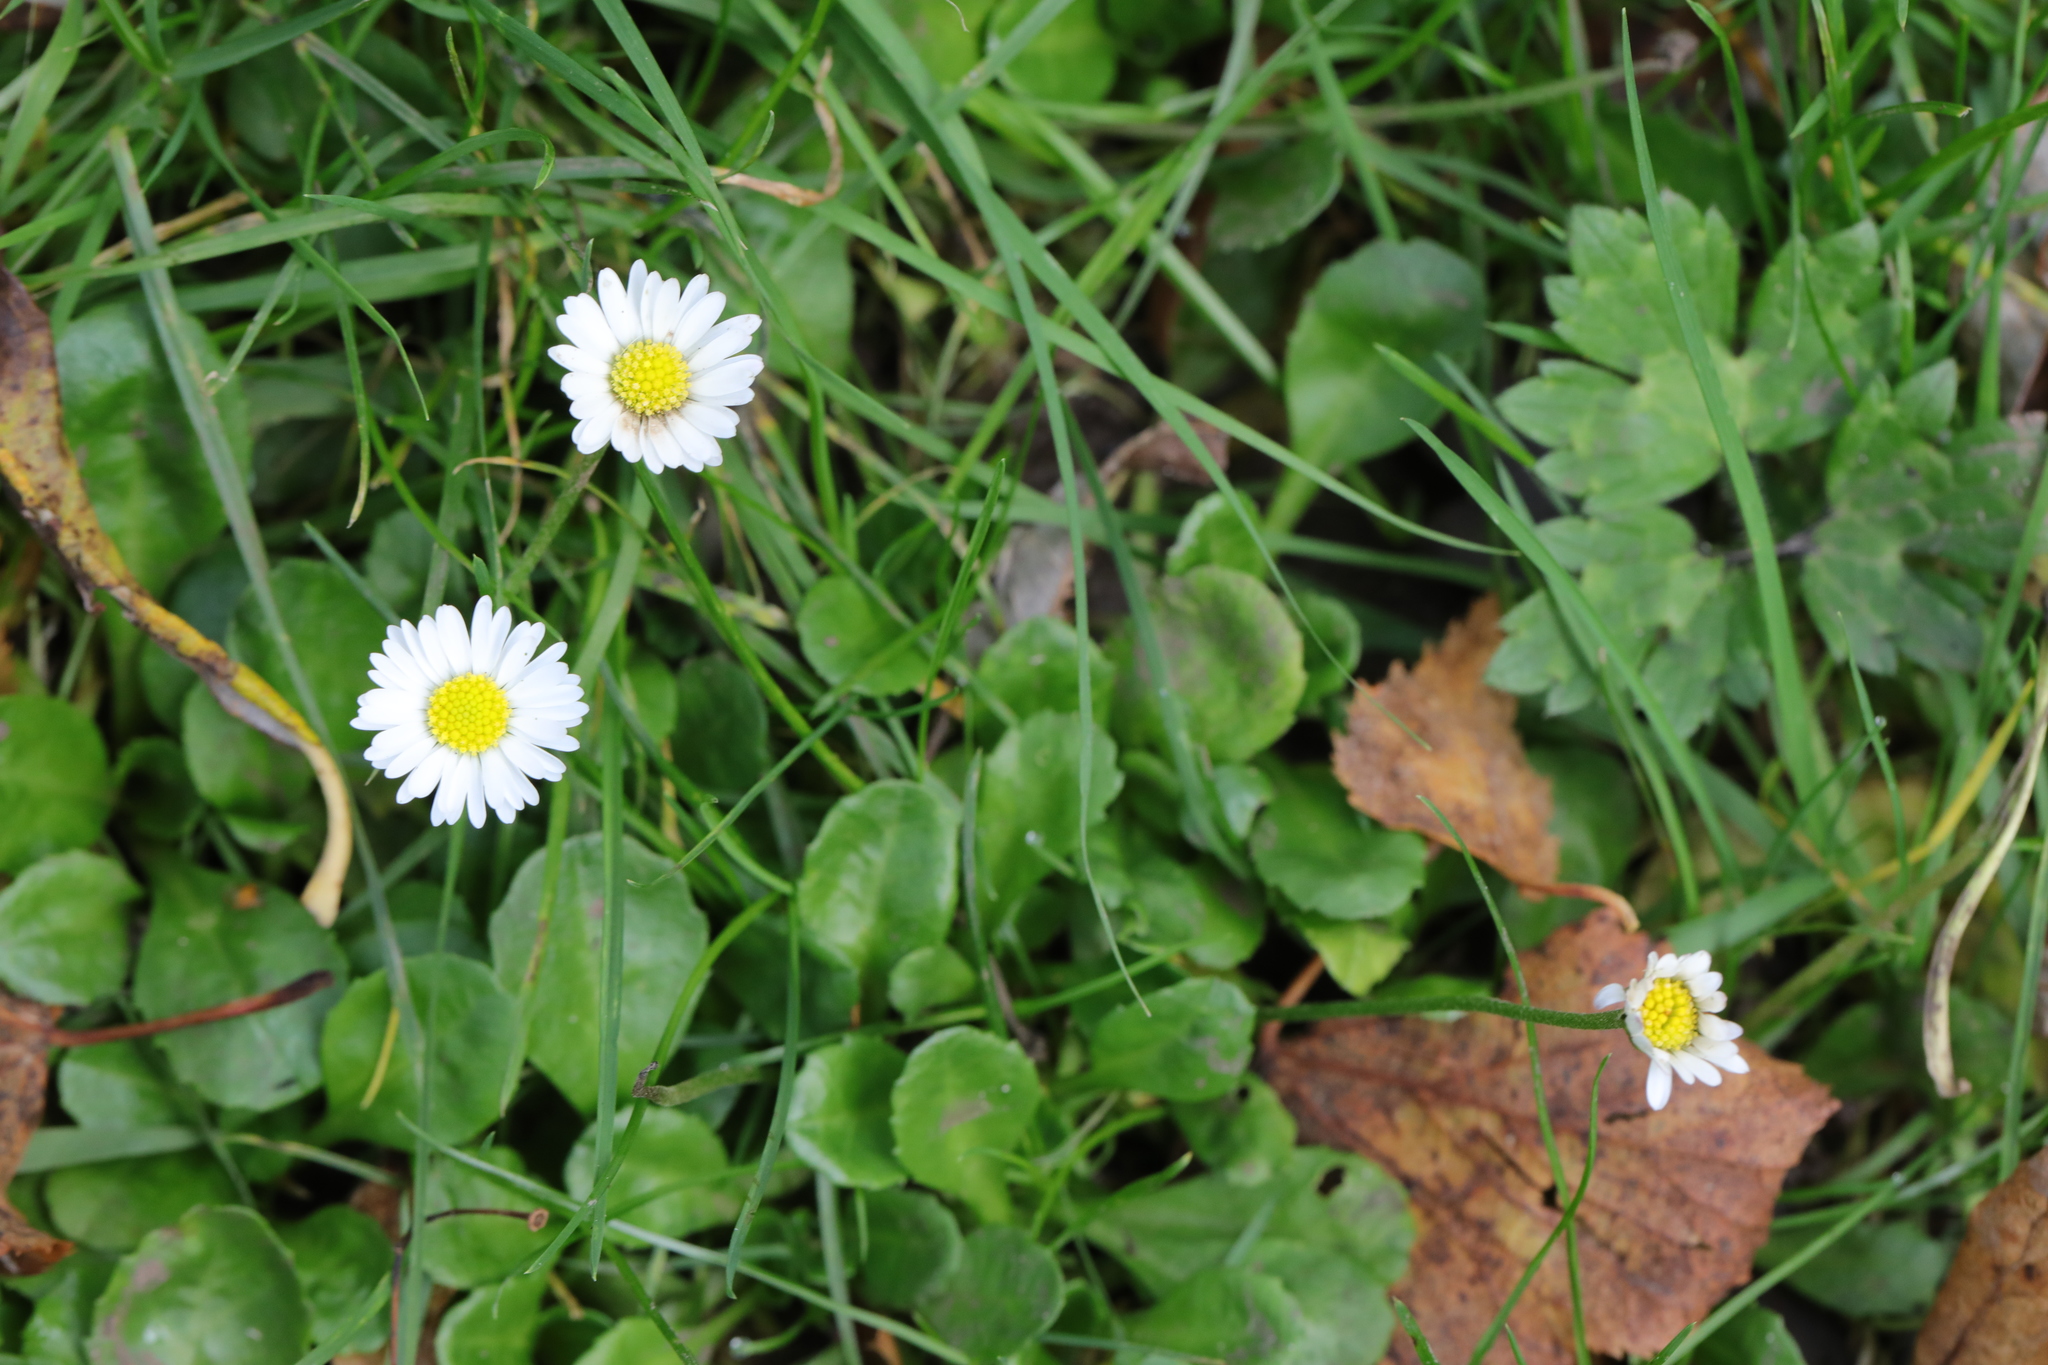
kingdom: Plantae
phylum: Tracheophyta
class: Magnoliopsida
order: Asterales
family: Asteraceae
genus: Bellis
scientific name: Bellis perennis
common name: Lawndaisy
